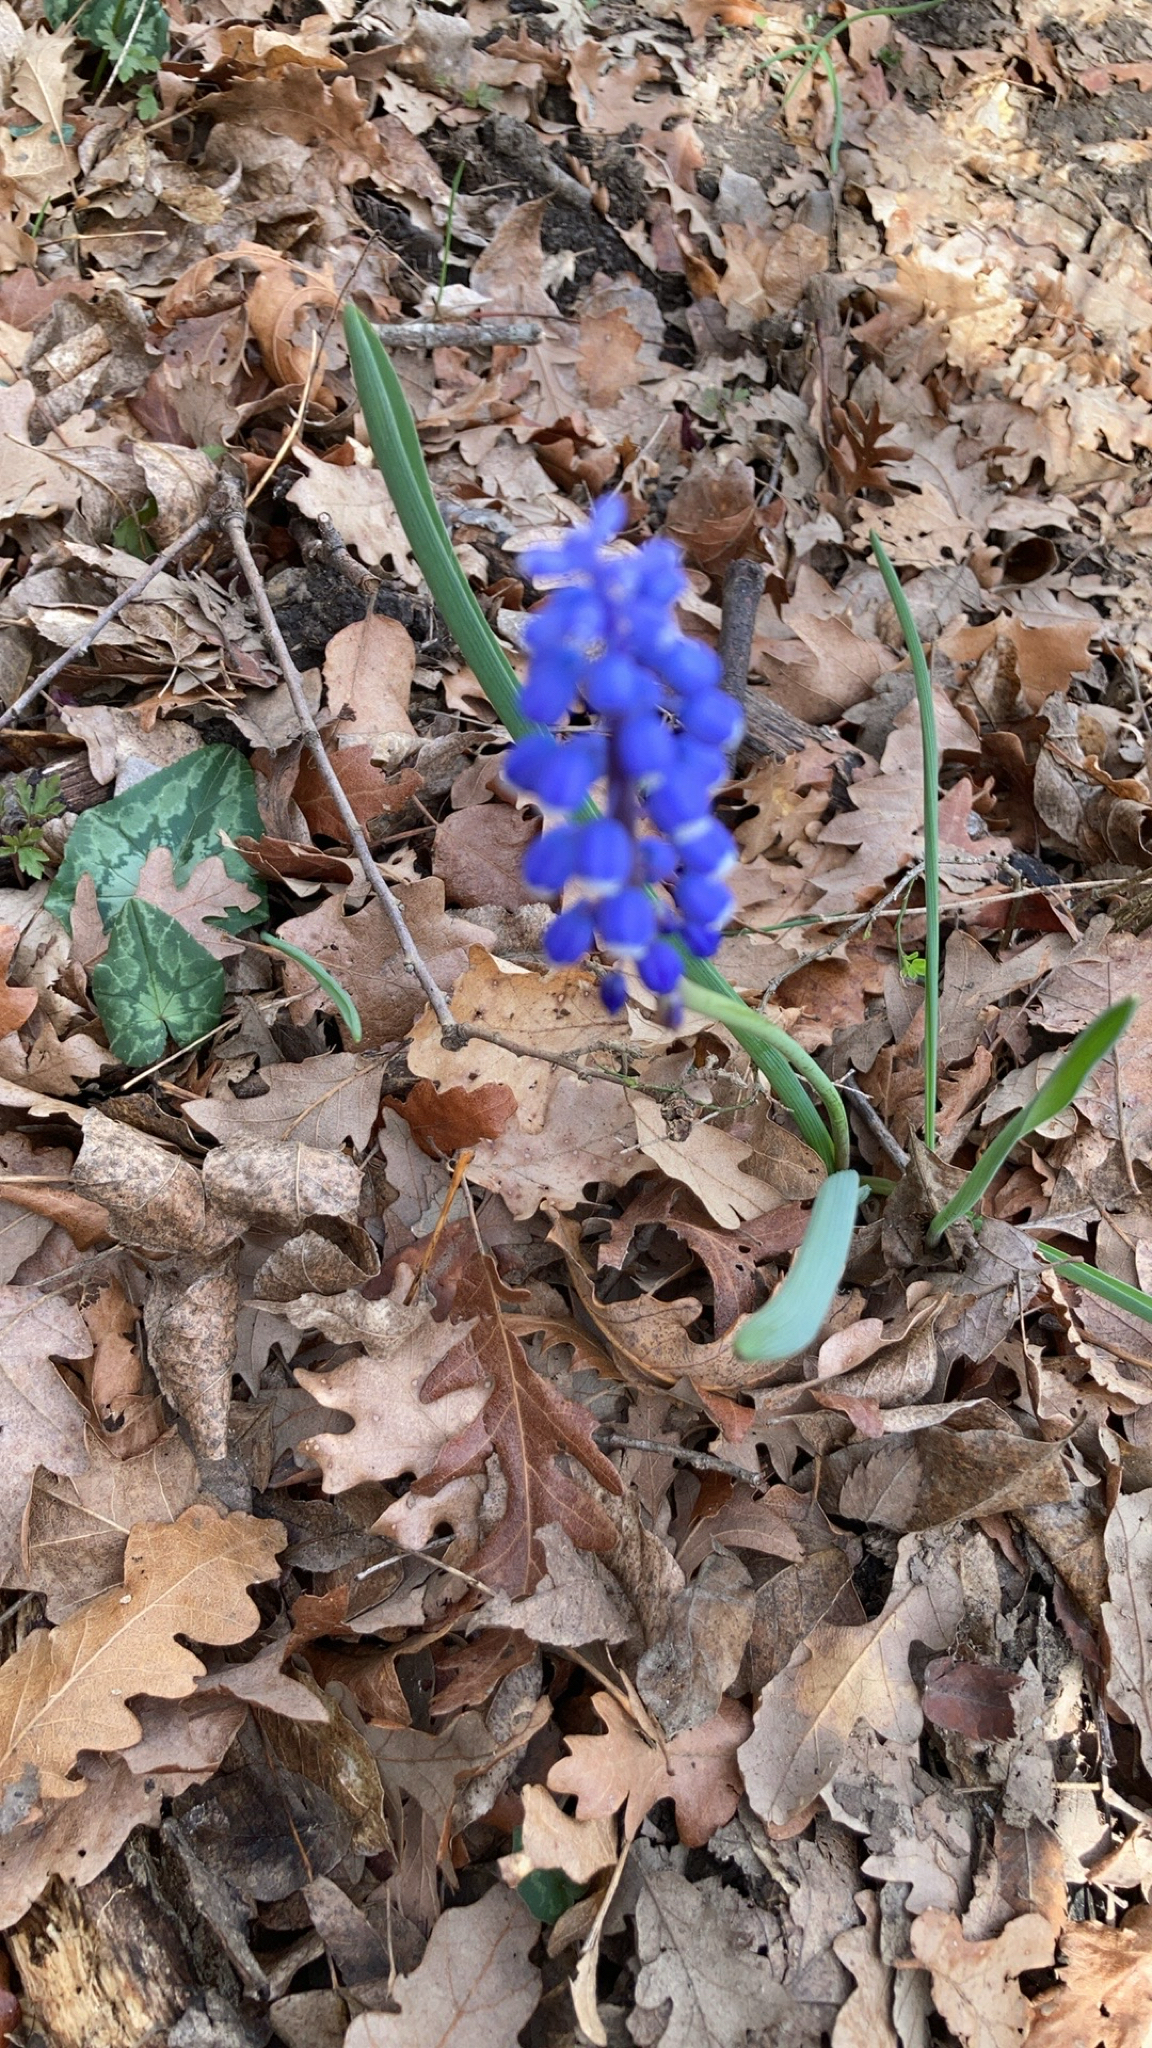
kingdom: Plantae
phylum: Tracheophyta
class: Liliopsida
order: Asparagales
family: Asparagaceae
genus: Muscari
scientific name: Muscari botryoides
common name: Compact grape-hyacinth
